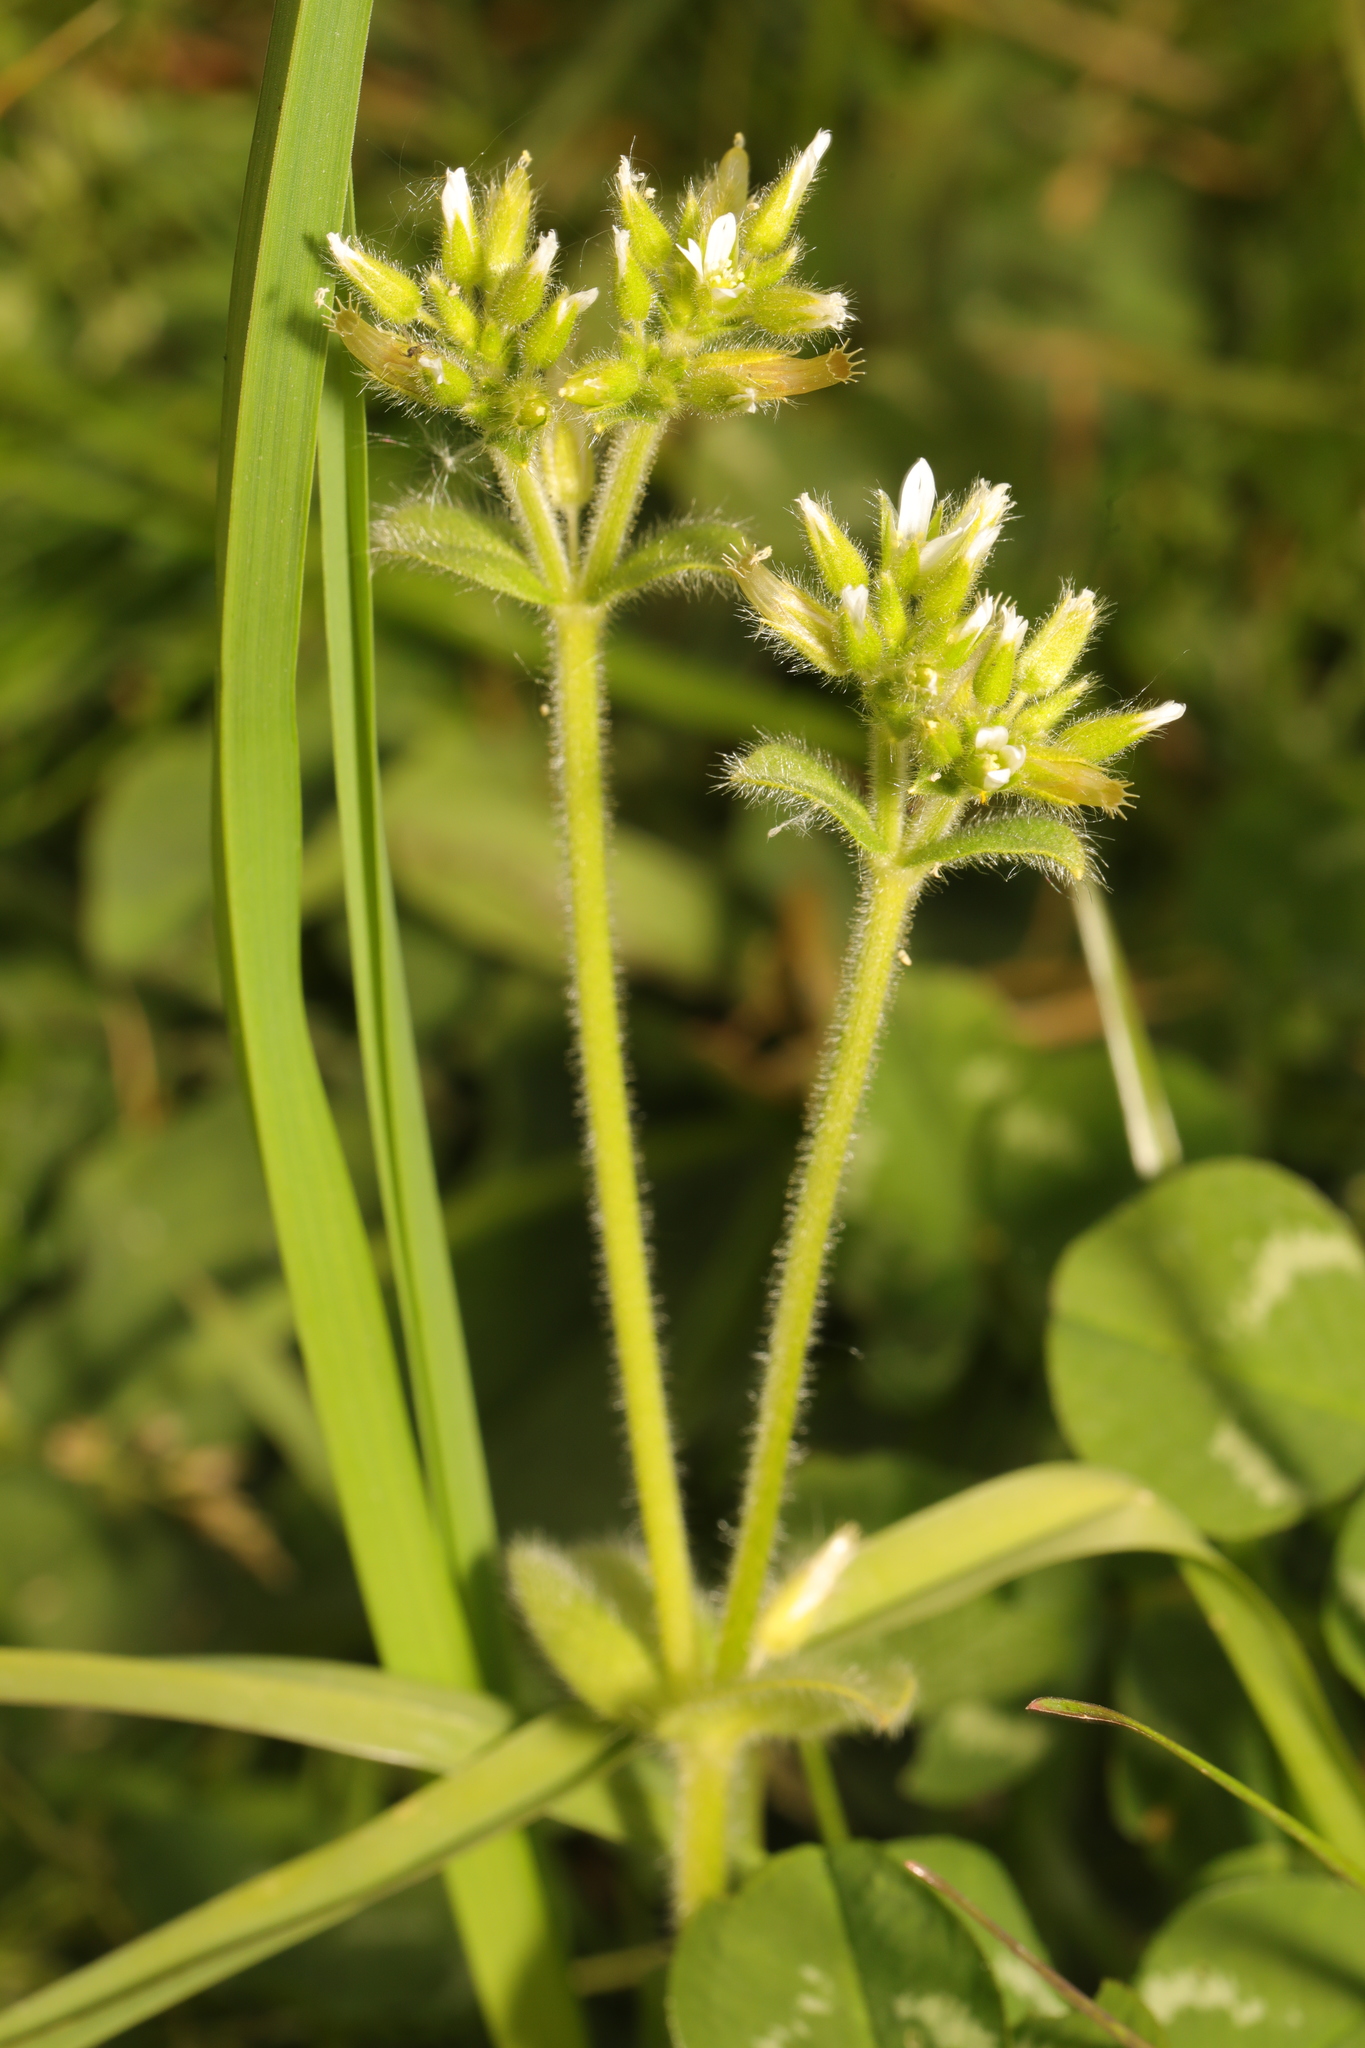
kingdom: Plantae
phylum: Tracheophyta
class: Magnoliopsida
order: Caryophyllales
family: Caryophyllaceae
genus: Cerastium
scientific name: Cerastium glomeratum
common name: Sticky chickweed
